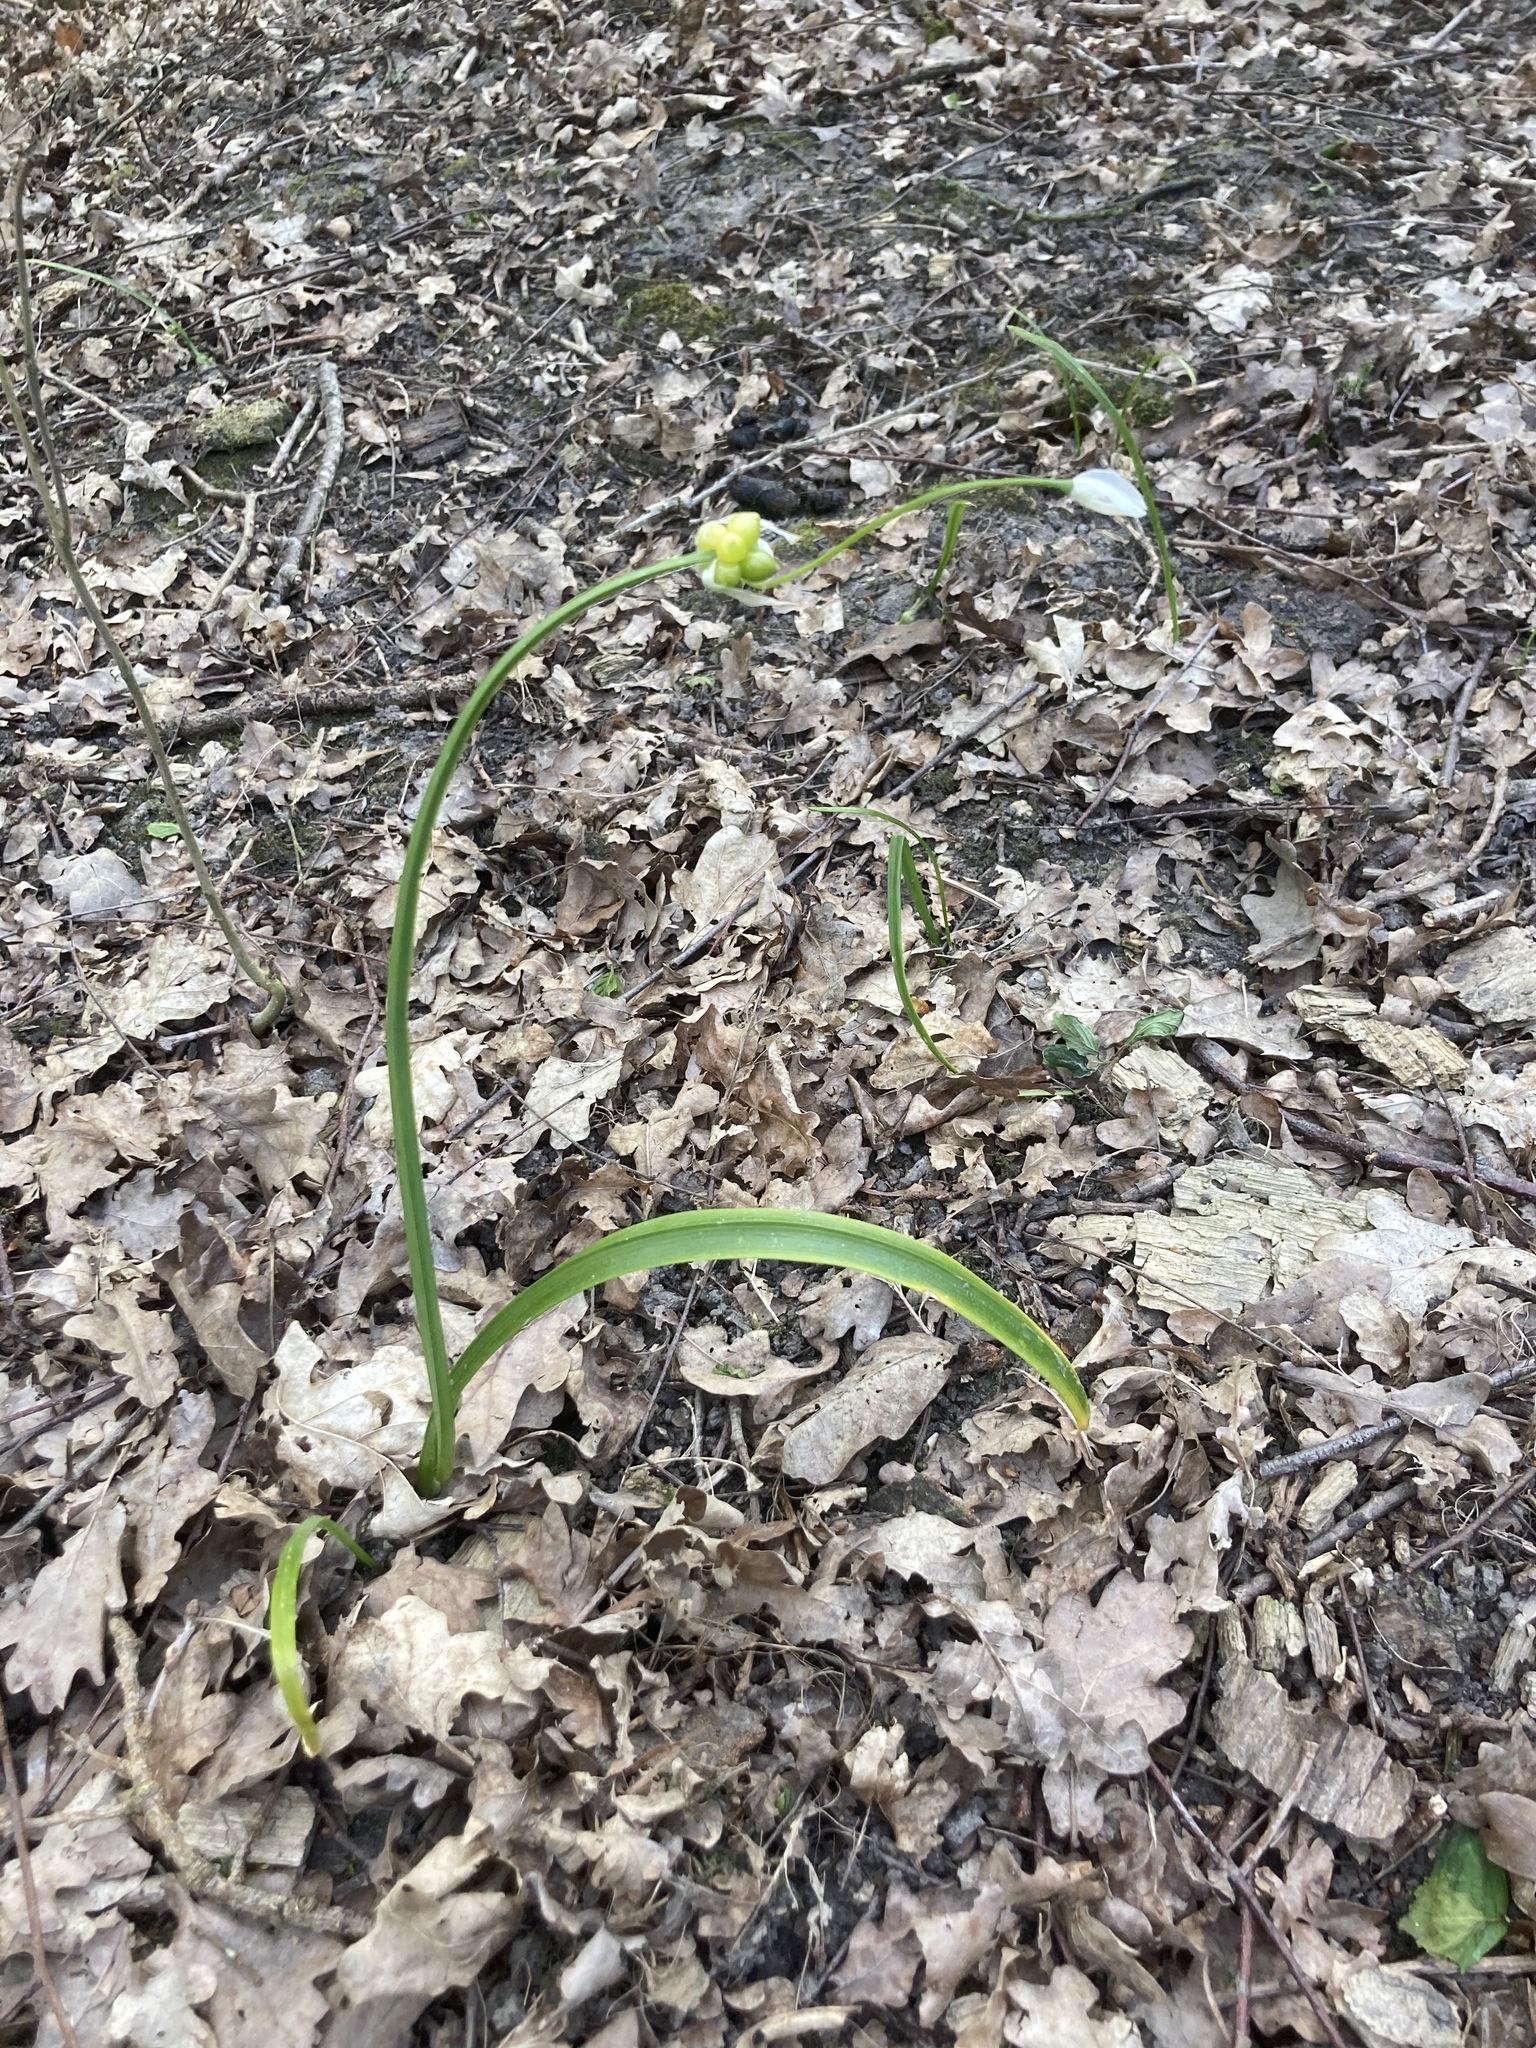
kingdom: Plantae
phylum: Tracheophyta
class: Liliopsida
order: Asparagales
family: Amaryllidaceae
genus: Allium
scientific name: Allium paradoxum
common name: Few-flowered garlic
